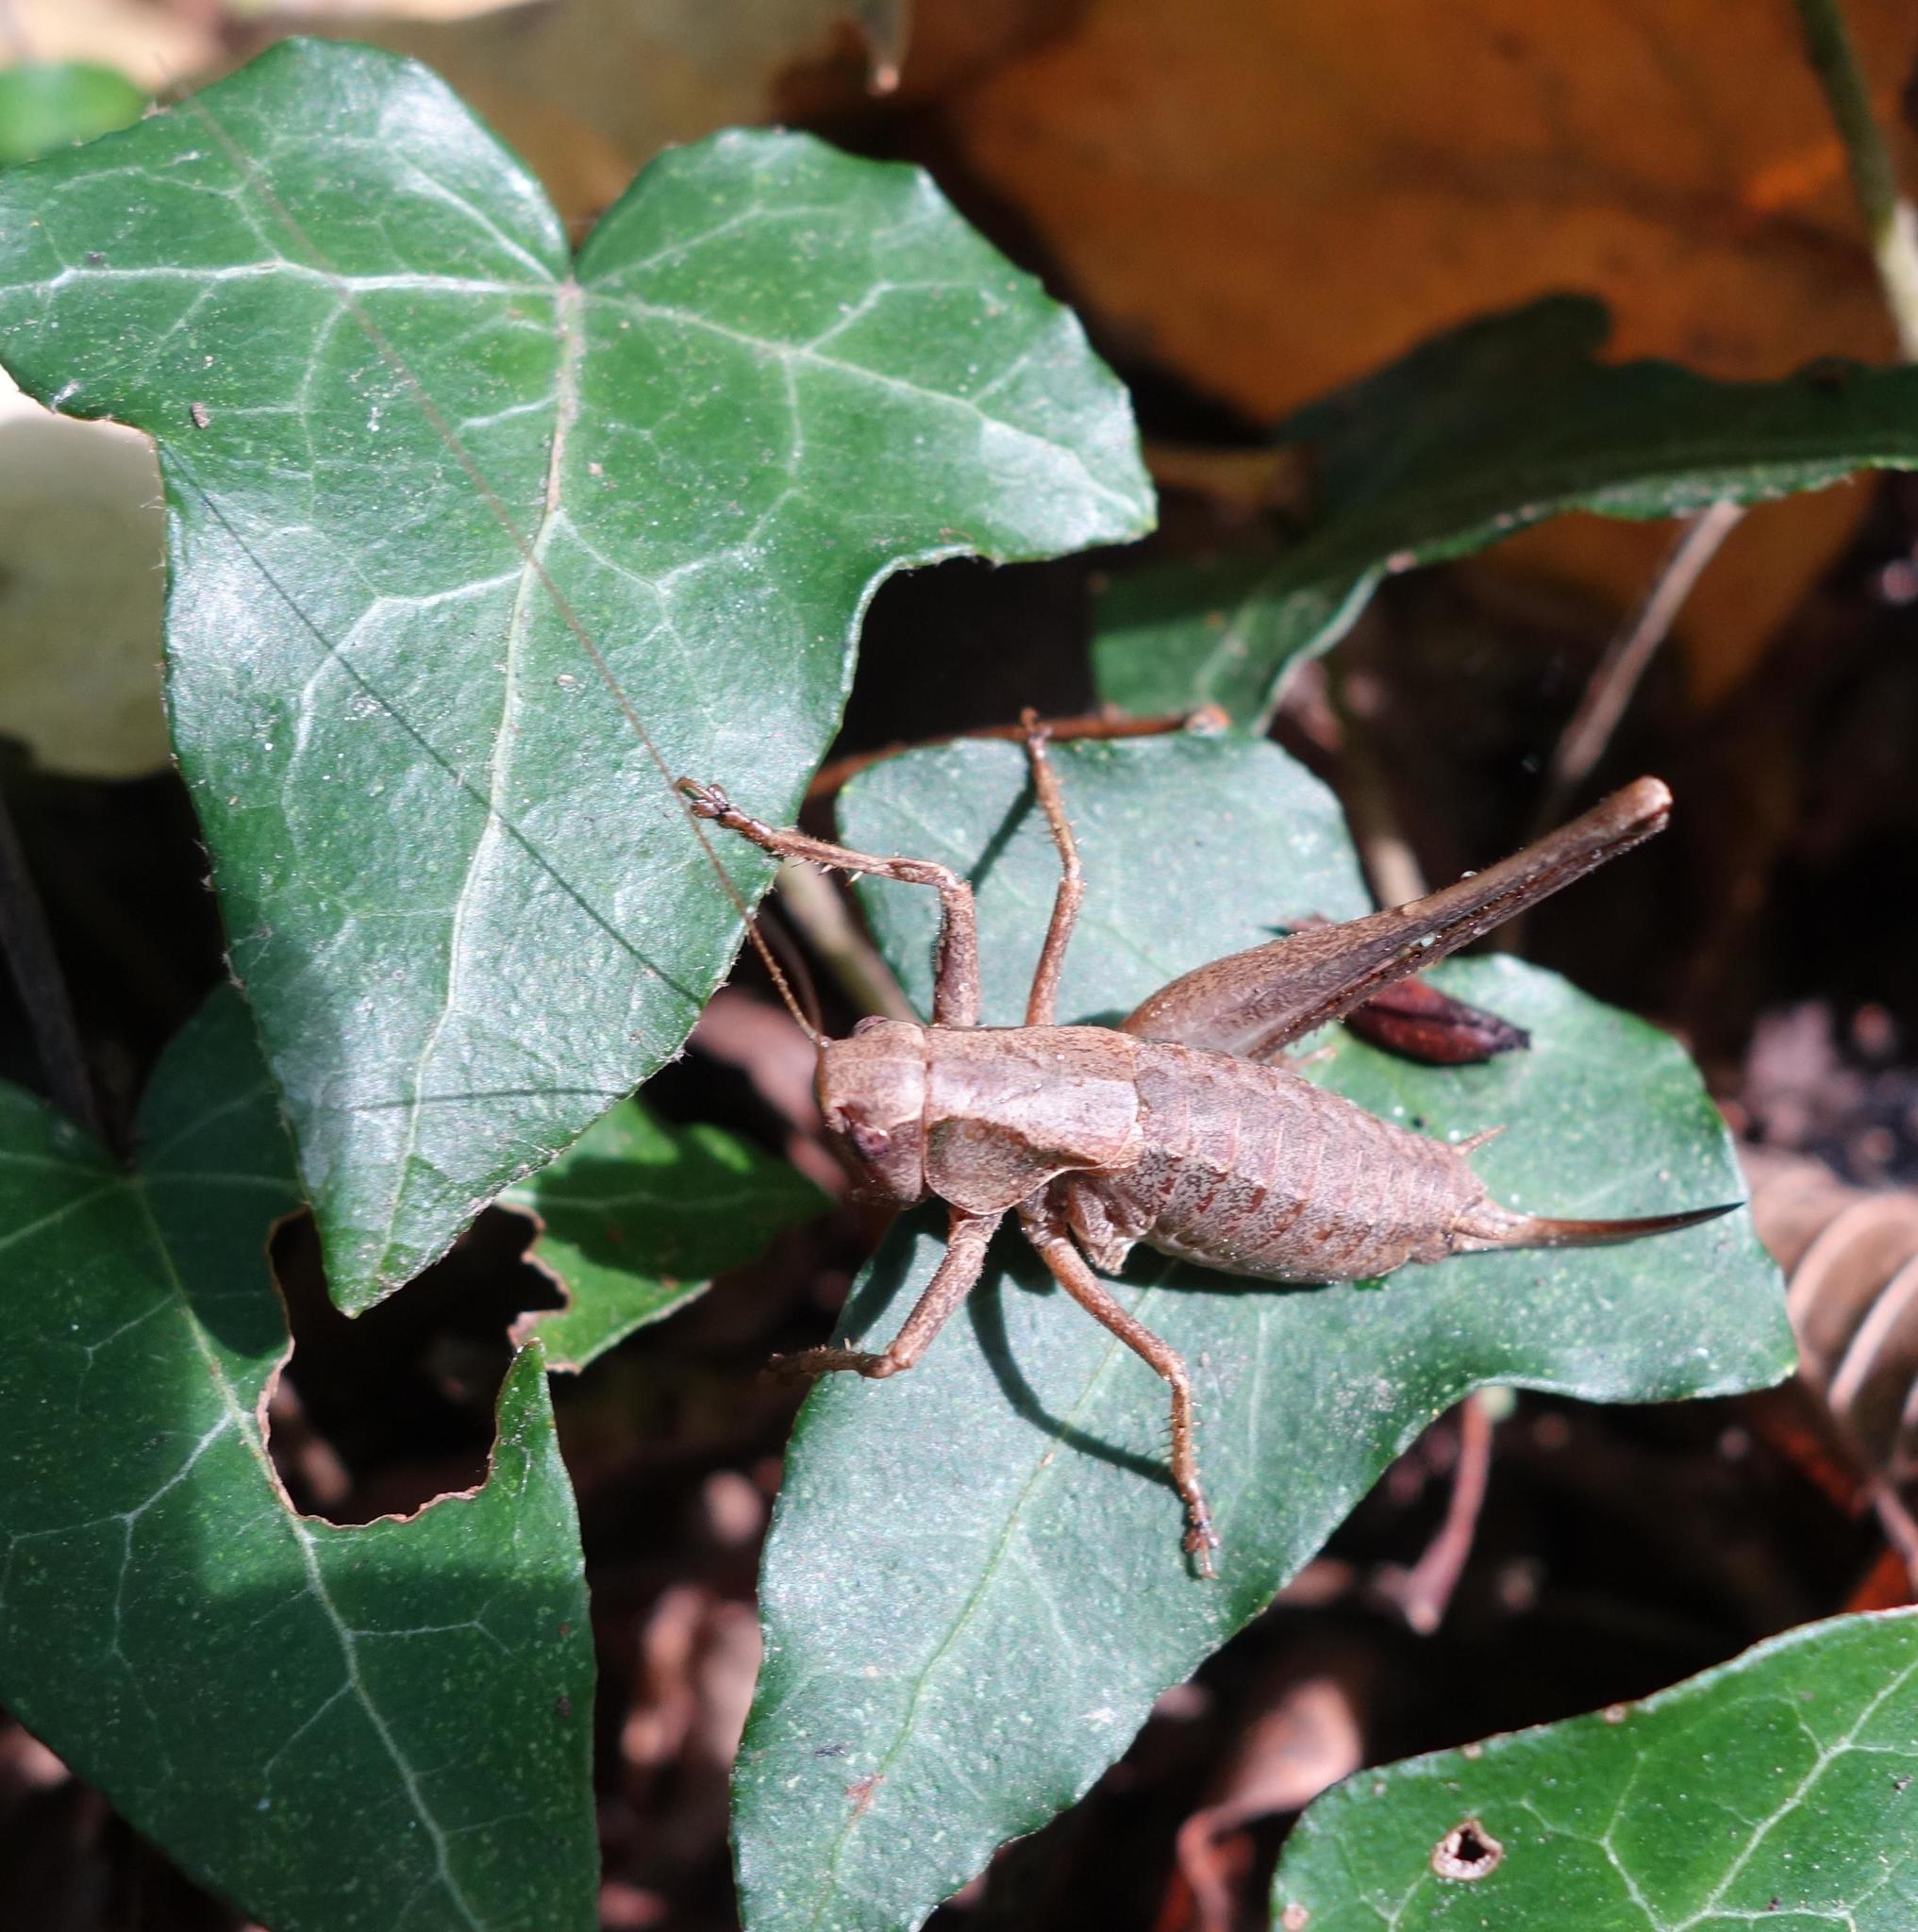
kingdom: Animalia
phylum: Arthropoda
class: Insecta
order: Orthoptera
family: Tettigoniidae
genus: Pholidoptera
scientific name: Pholidoptera griseoaptera
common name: Dark bush-cricket
